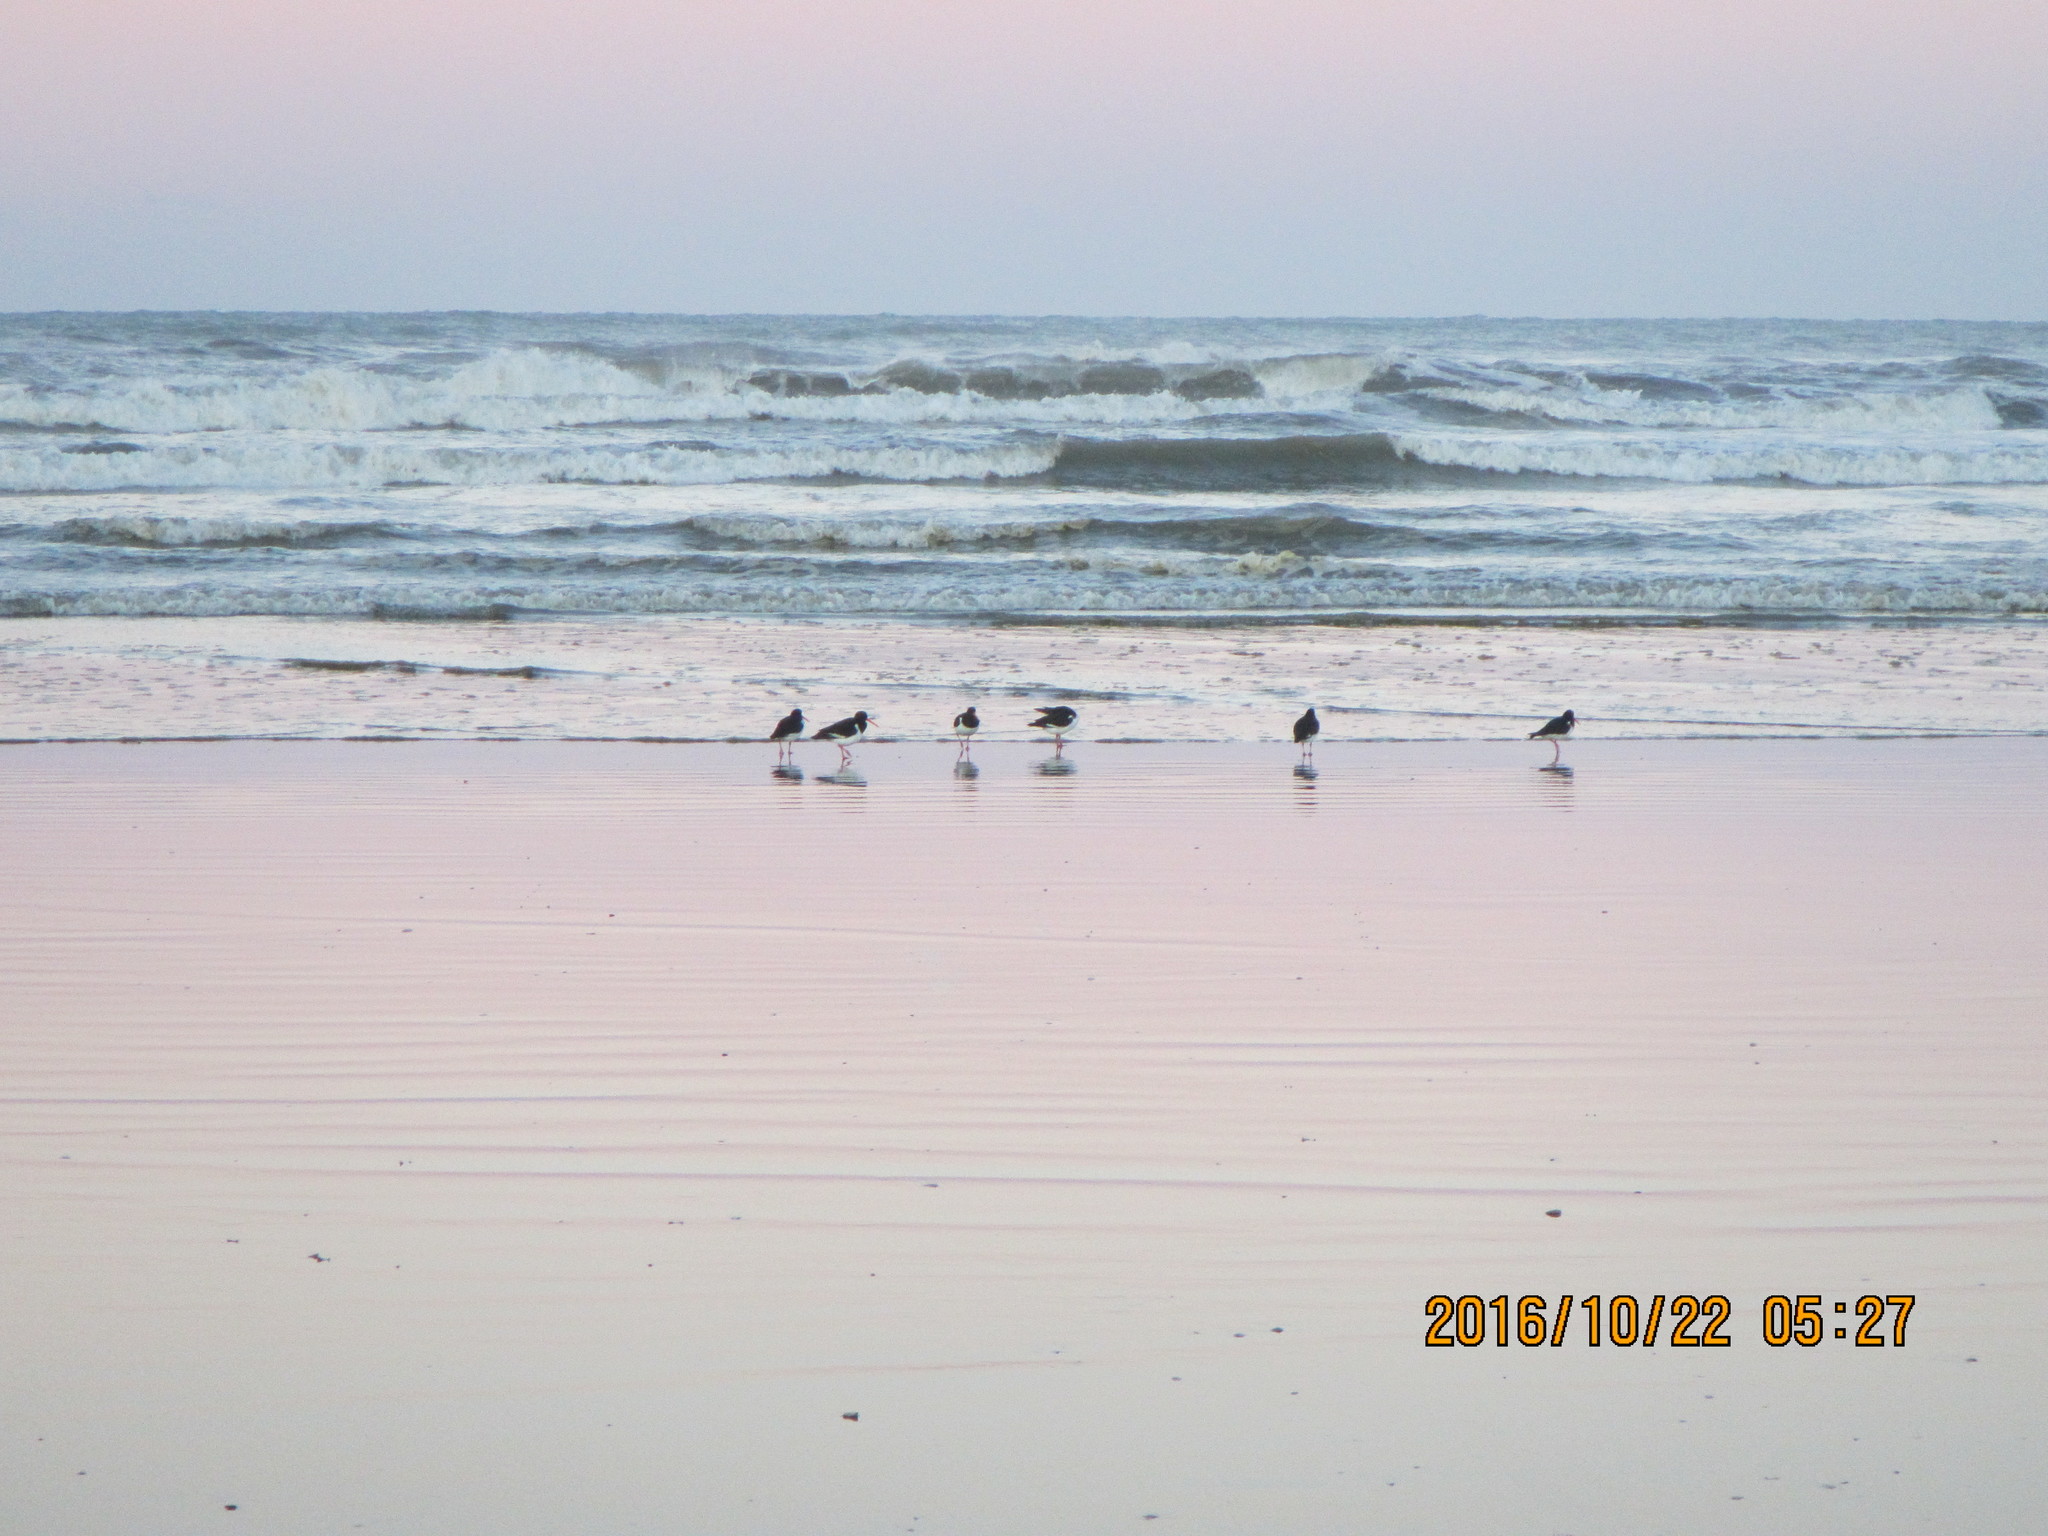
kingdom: Animalia
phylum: Chordata
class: Aves
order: Charadriiformes
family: Haematopodidae
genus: Haematopus
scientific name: Haematopus finschi
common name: South island oystercatcher
